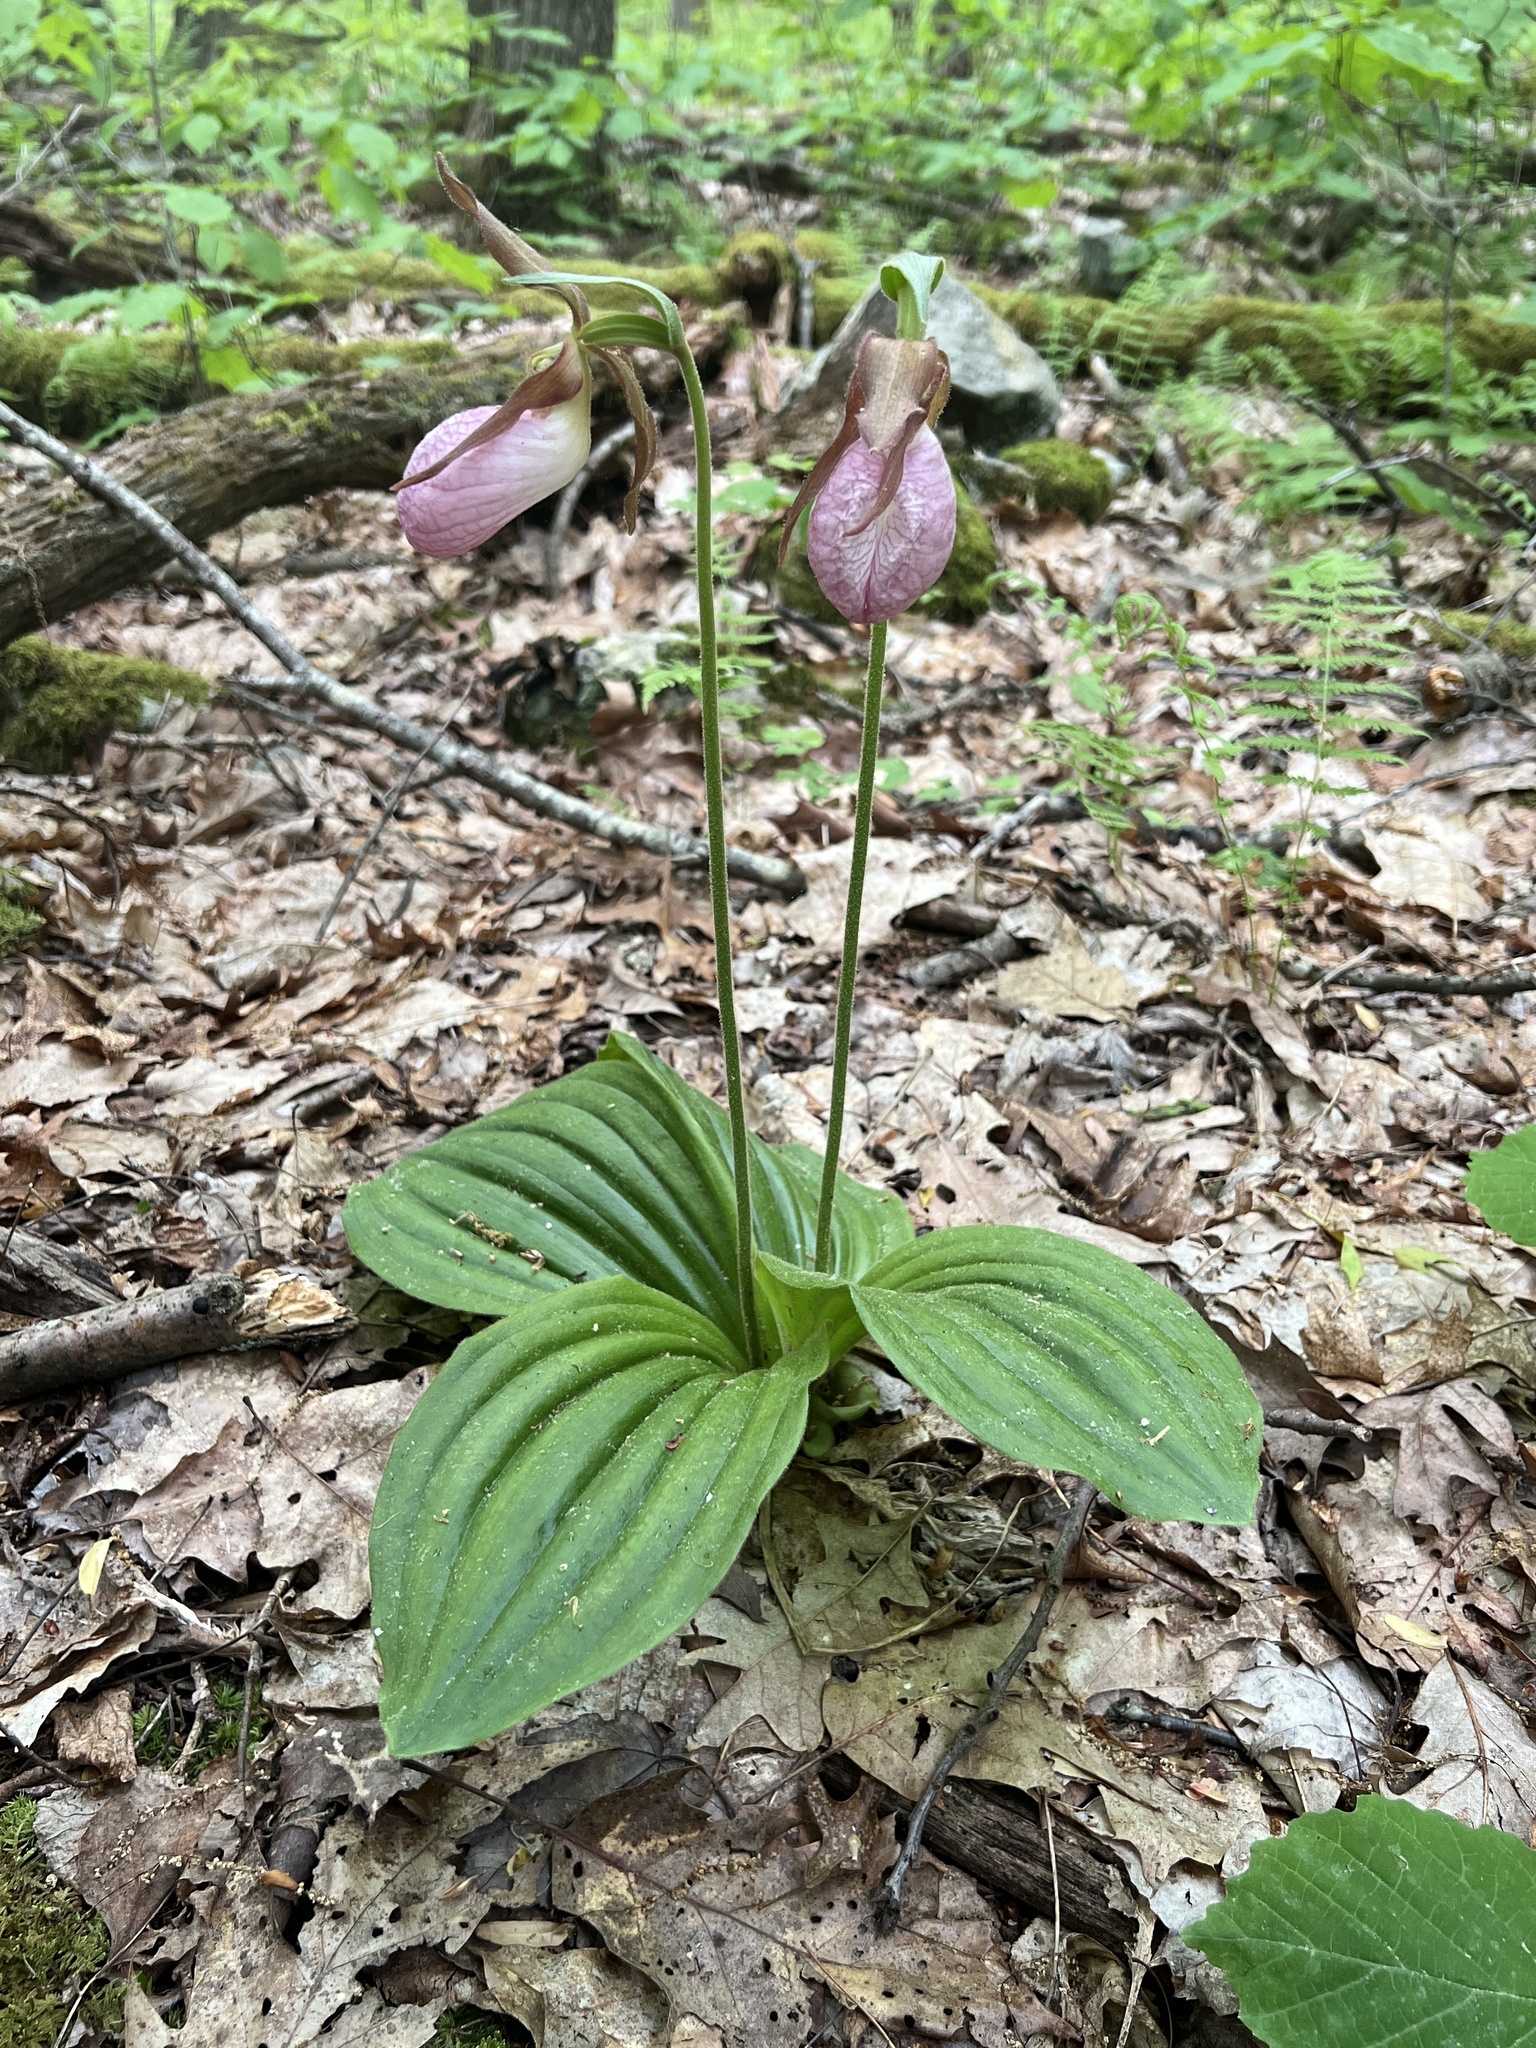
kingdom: Plantae
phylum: Tracheophyta
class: Liliopsida
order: Asparagales
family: Orchidaceae
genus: Cypripedium
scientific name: Cypripedium acaule
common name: Pink lady's-slipper
